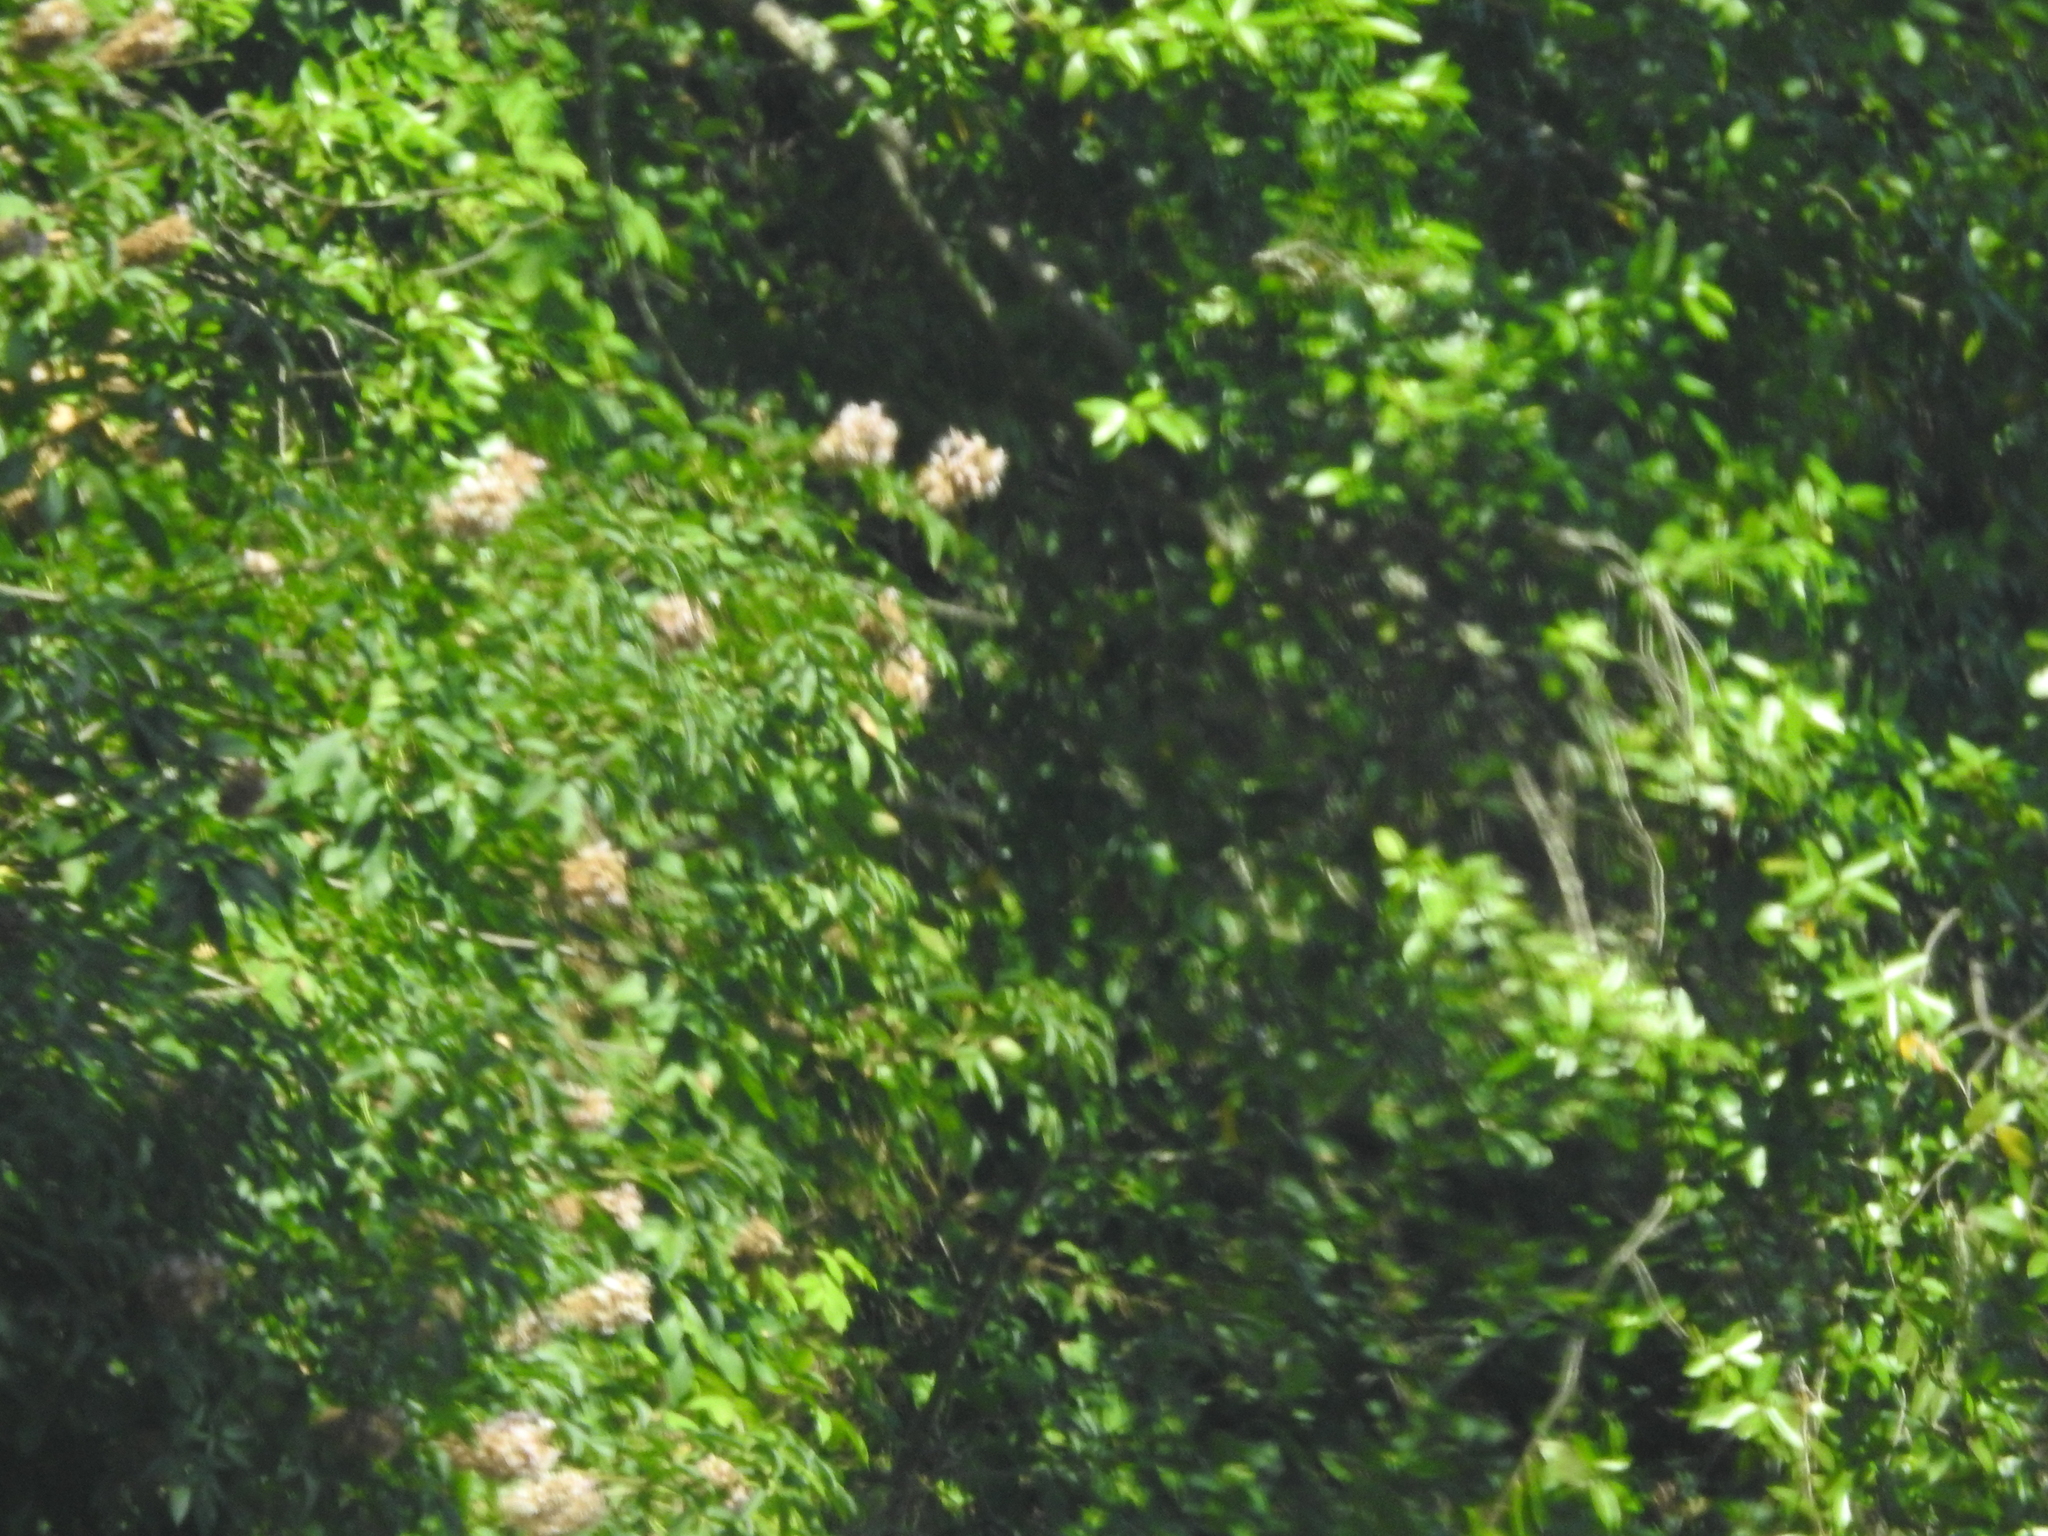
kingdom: Plantae
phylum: Tracheophyta
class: Magnoliopsida
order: Sapindales
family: Sapindaceae
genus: Aesculus
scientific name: Aesculus californica
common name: California buckeye
